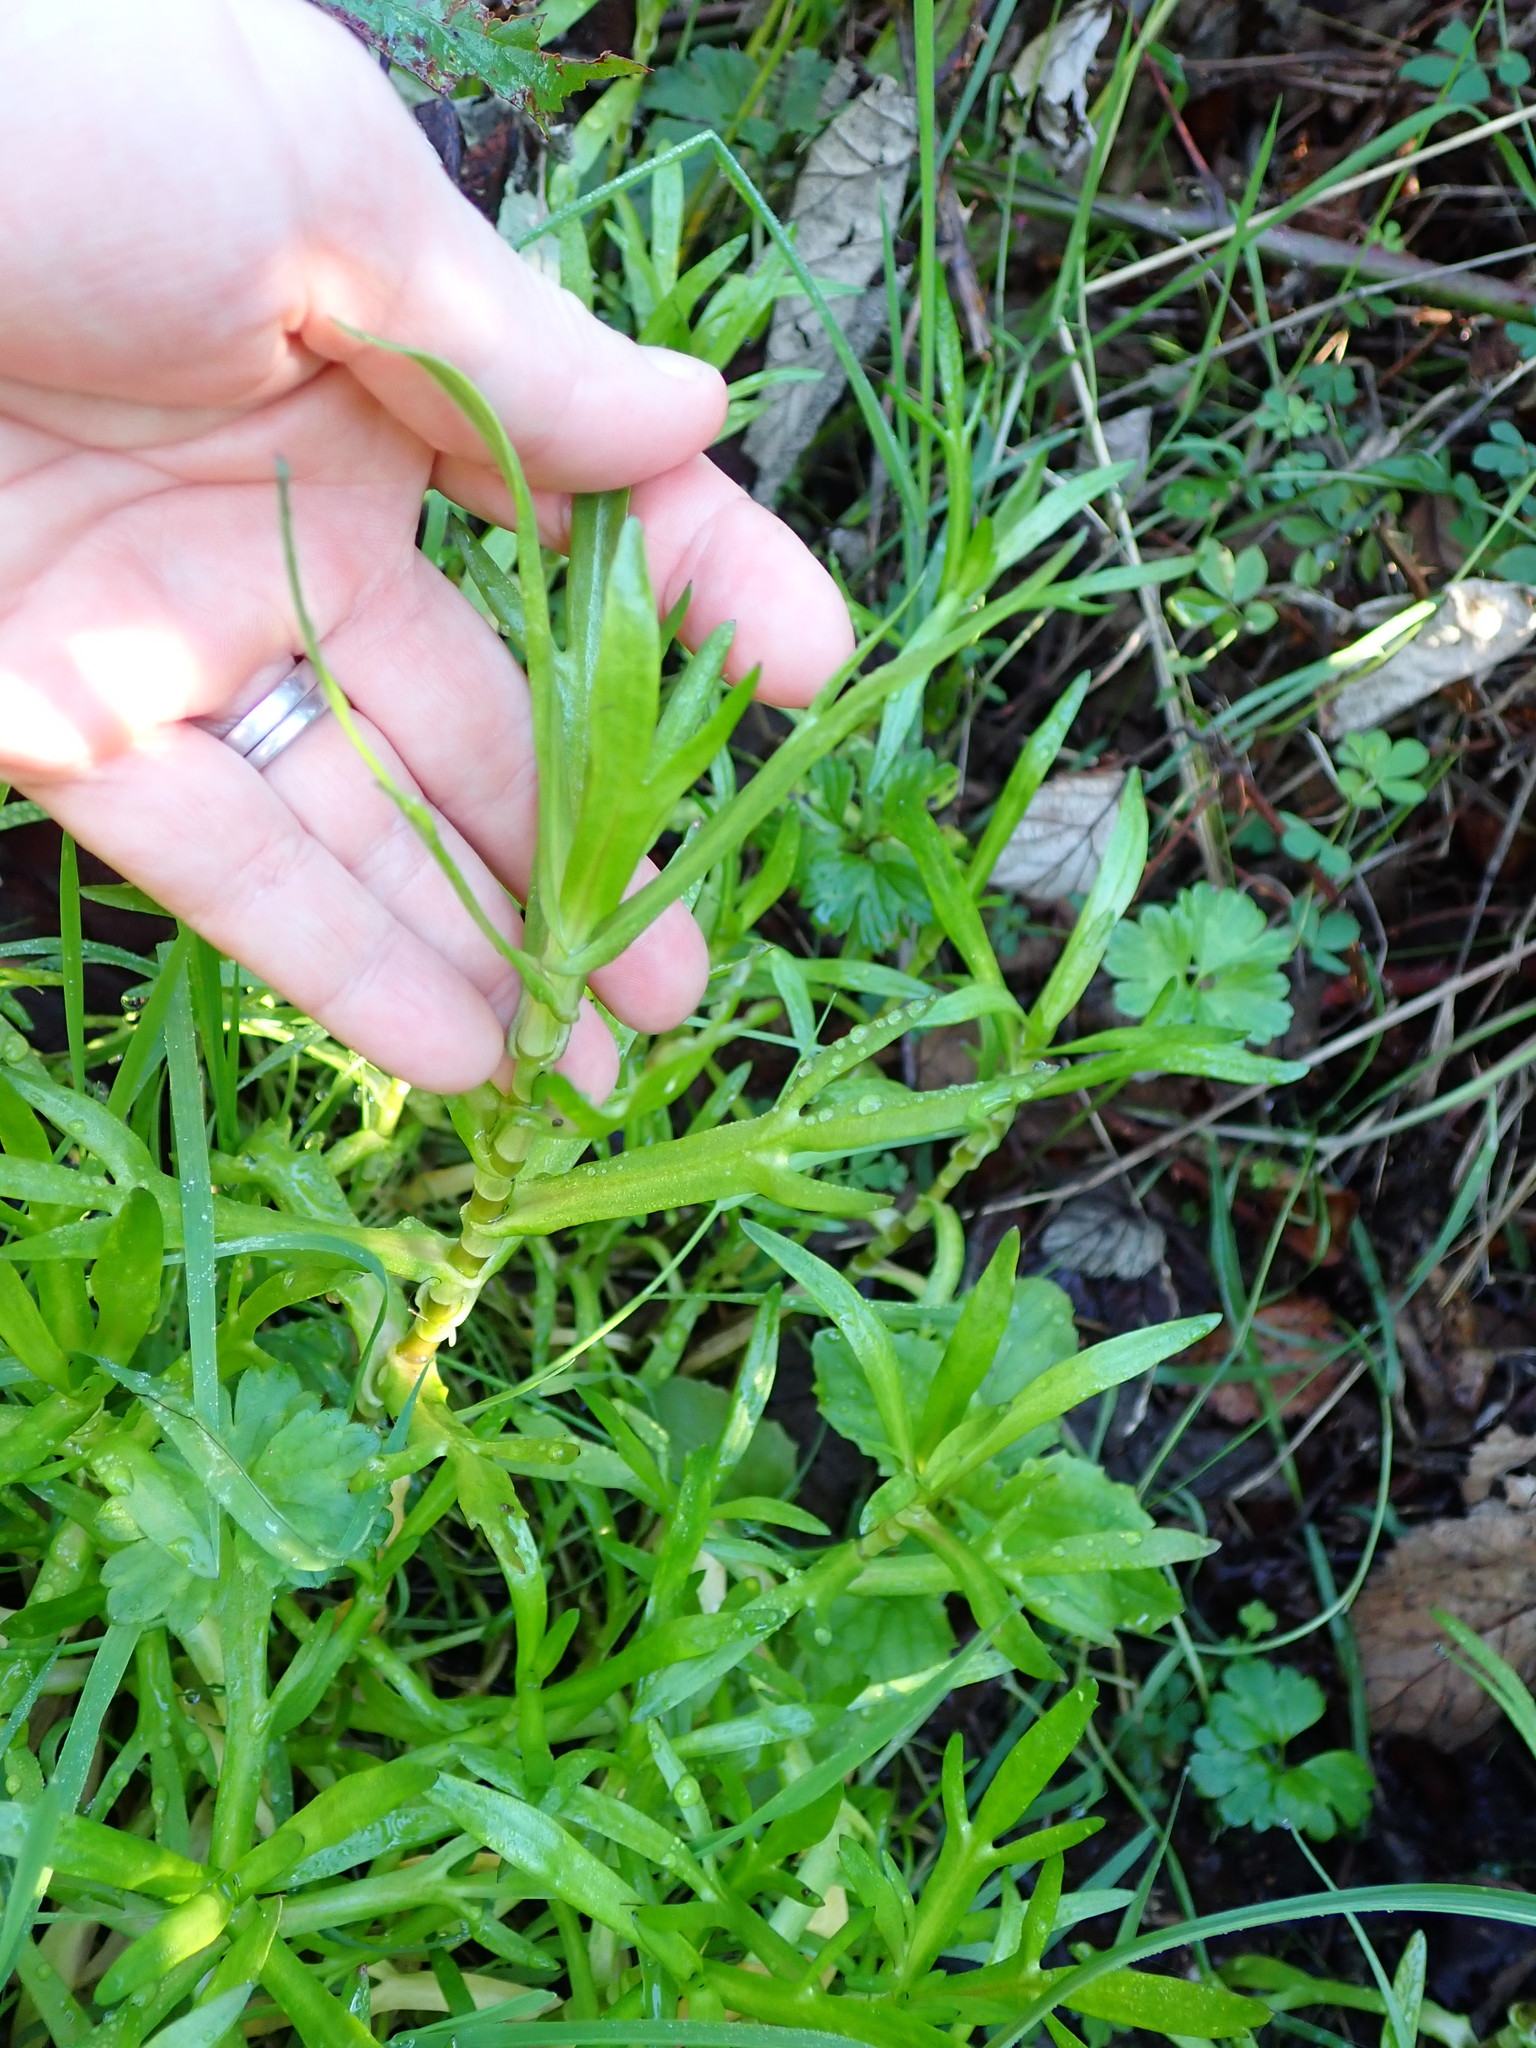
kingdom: Plantae
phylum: Tracheophyta
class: Magnoliopsida
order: Asterales
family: Asteraceae
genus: Cotula
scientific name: Cotula coronopifolia
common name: Buttonweed
